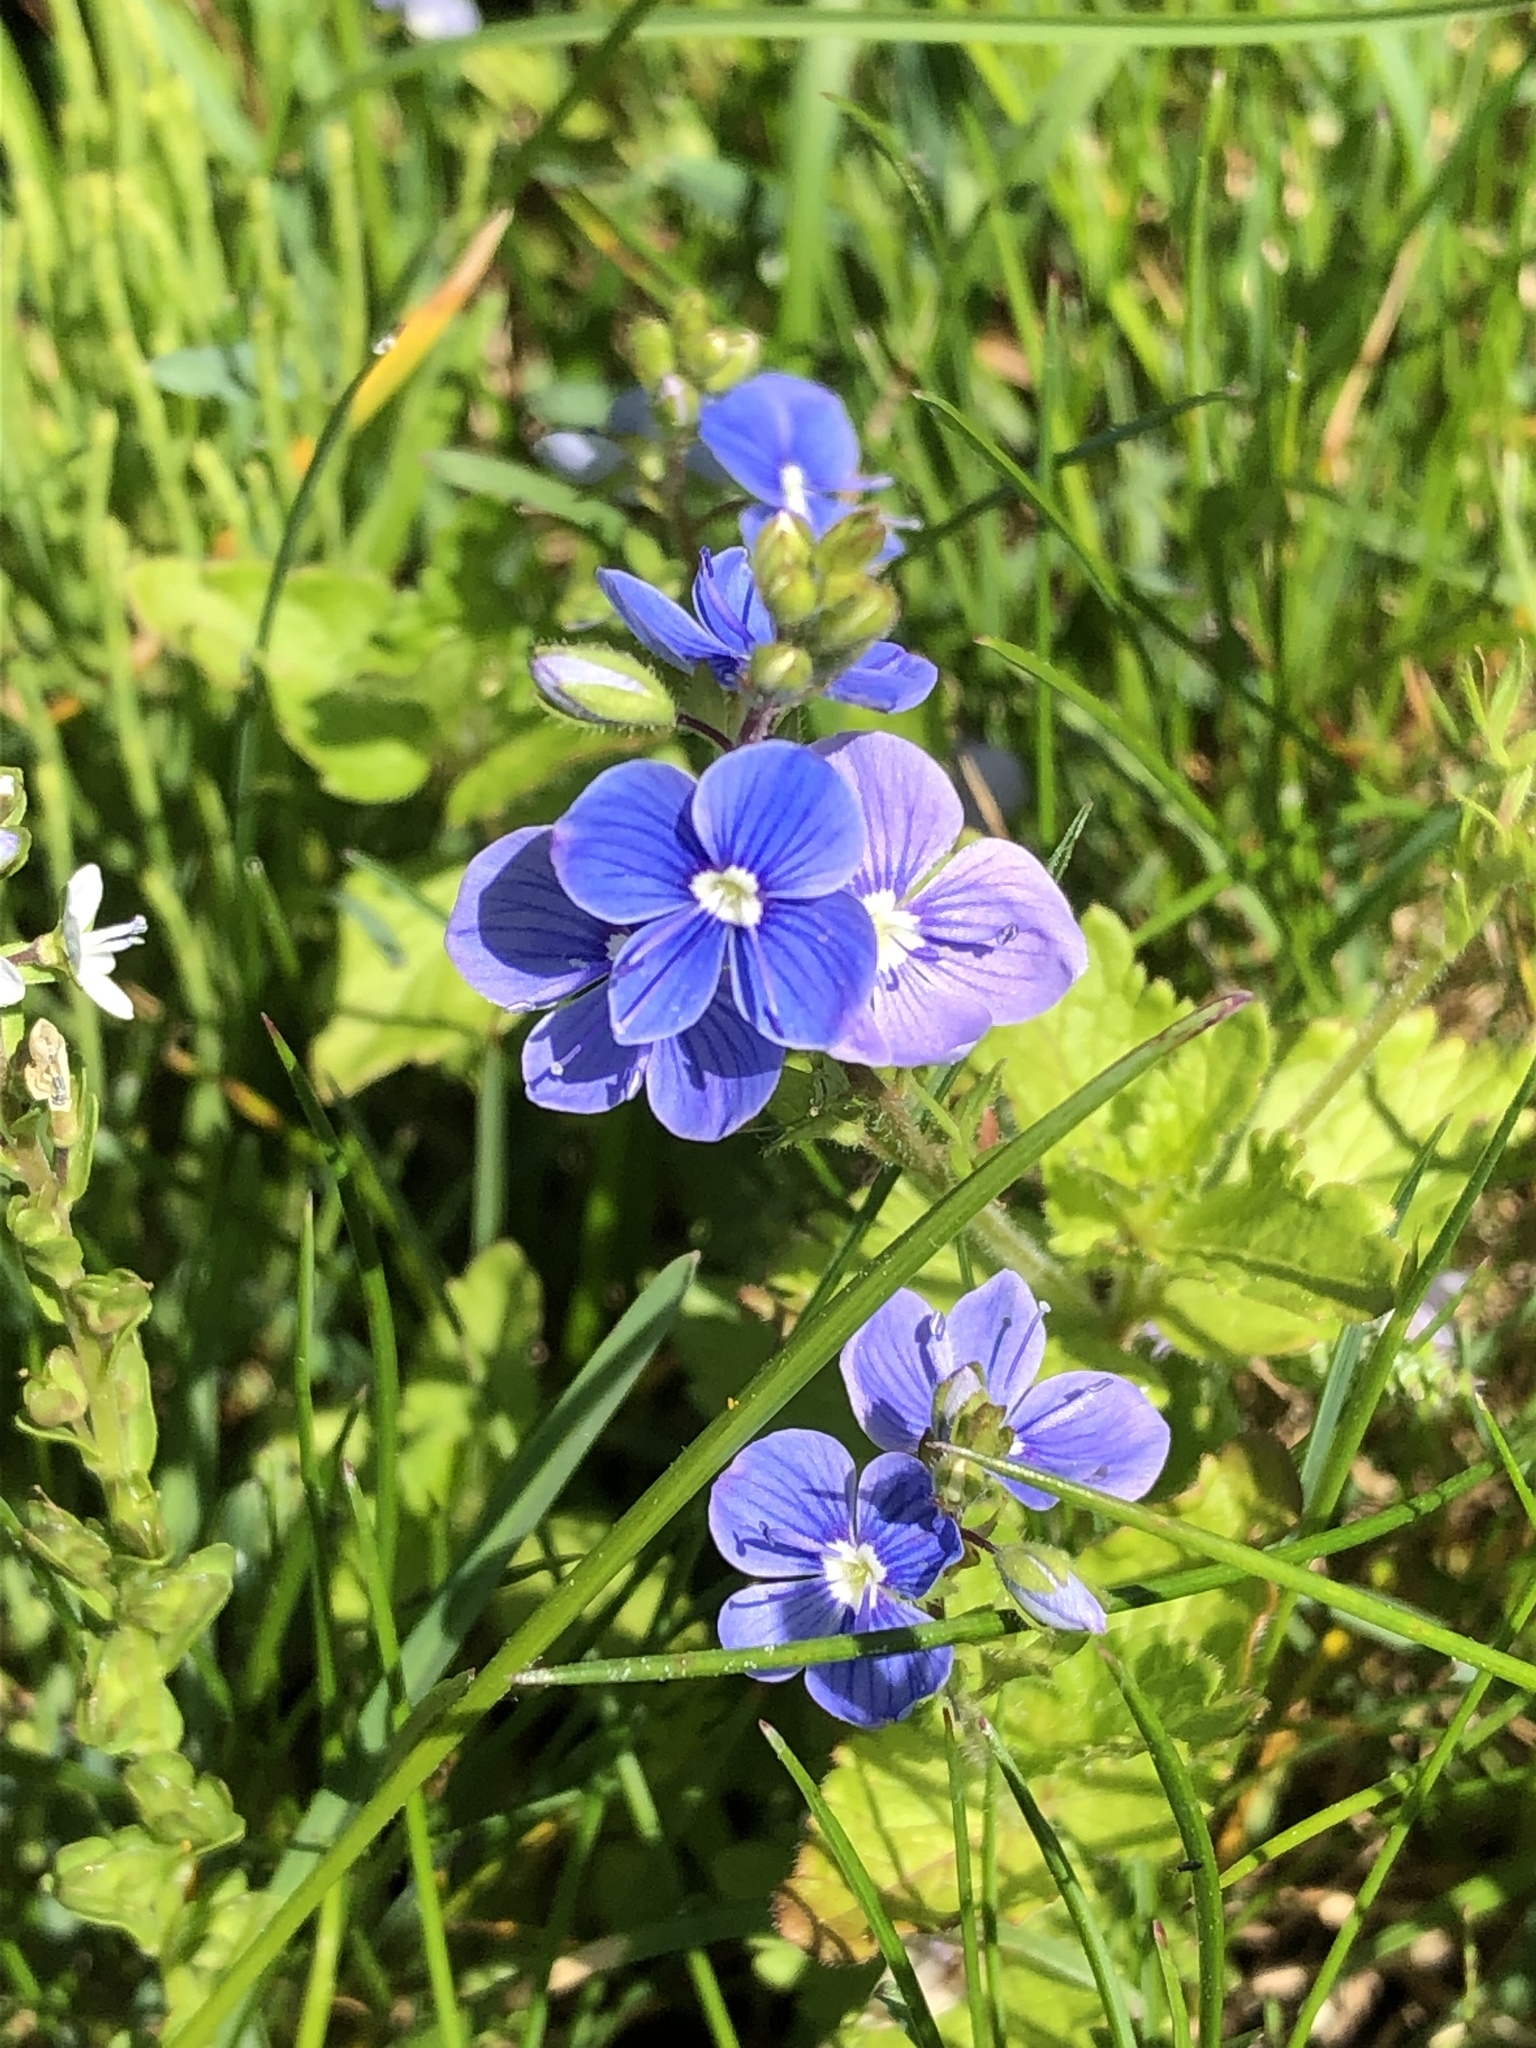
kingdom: Plantae
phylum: Tracheophyta
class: Magnoliopsida
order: Lamiales
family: Plantaginaceae
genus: Veronica
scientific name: Veronica chamaedrys
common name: Germander speedwell
